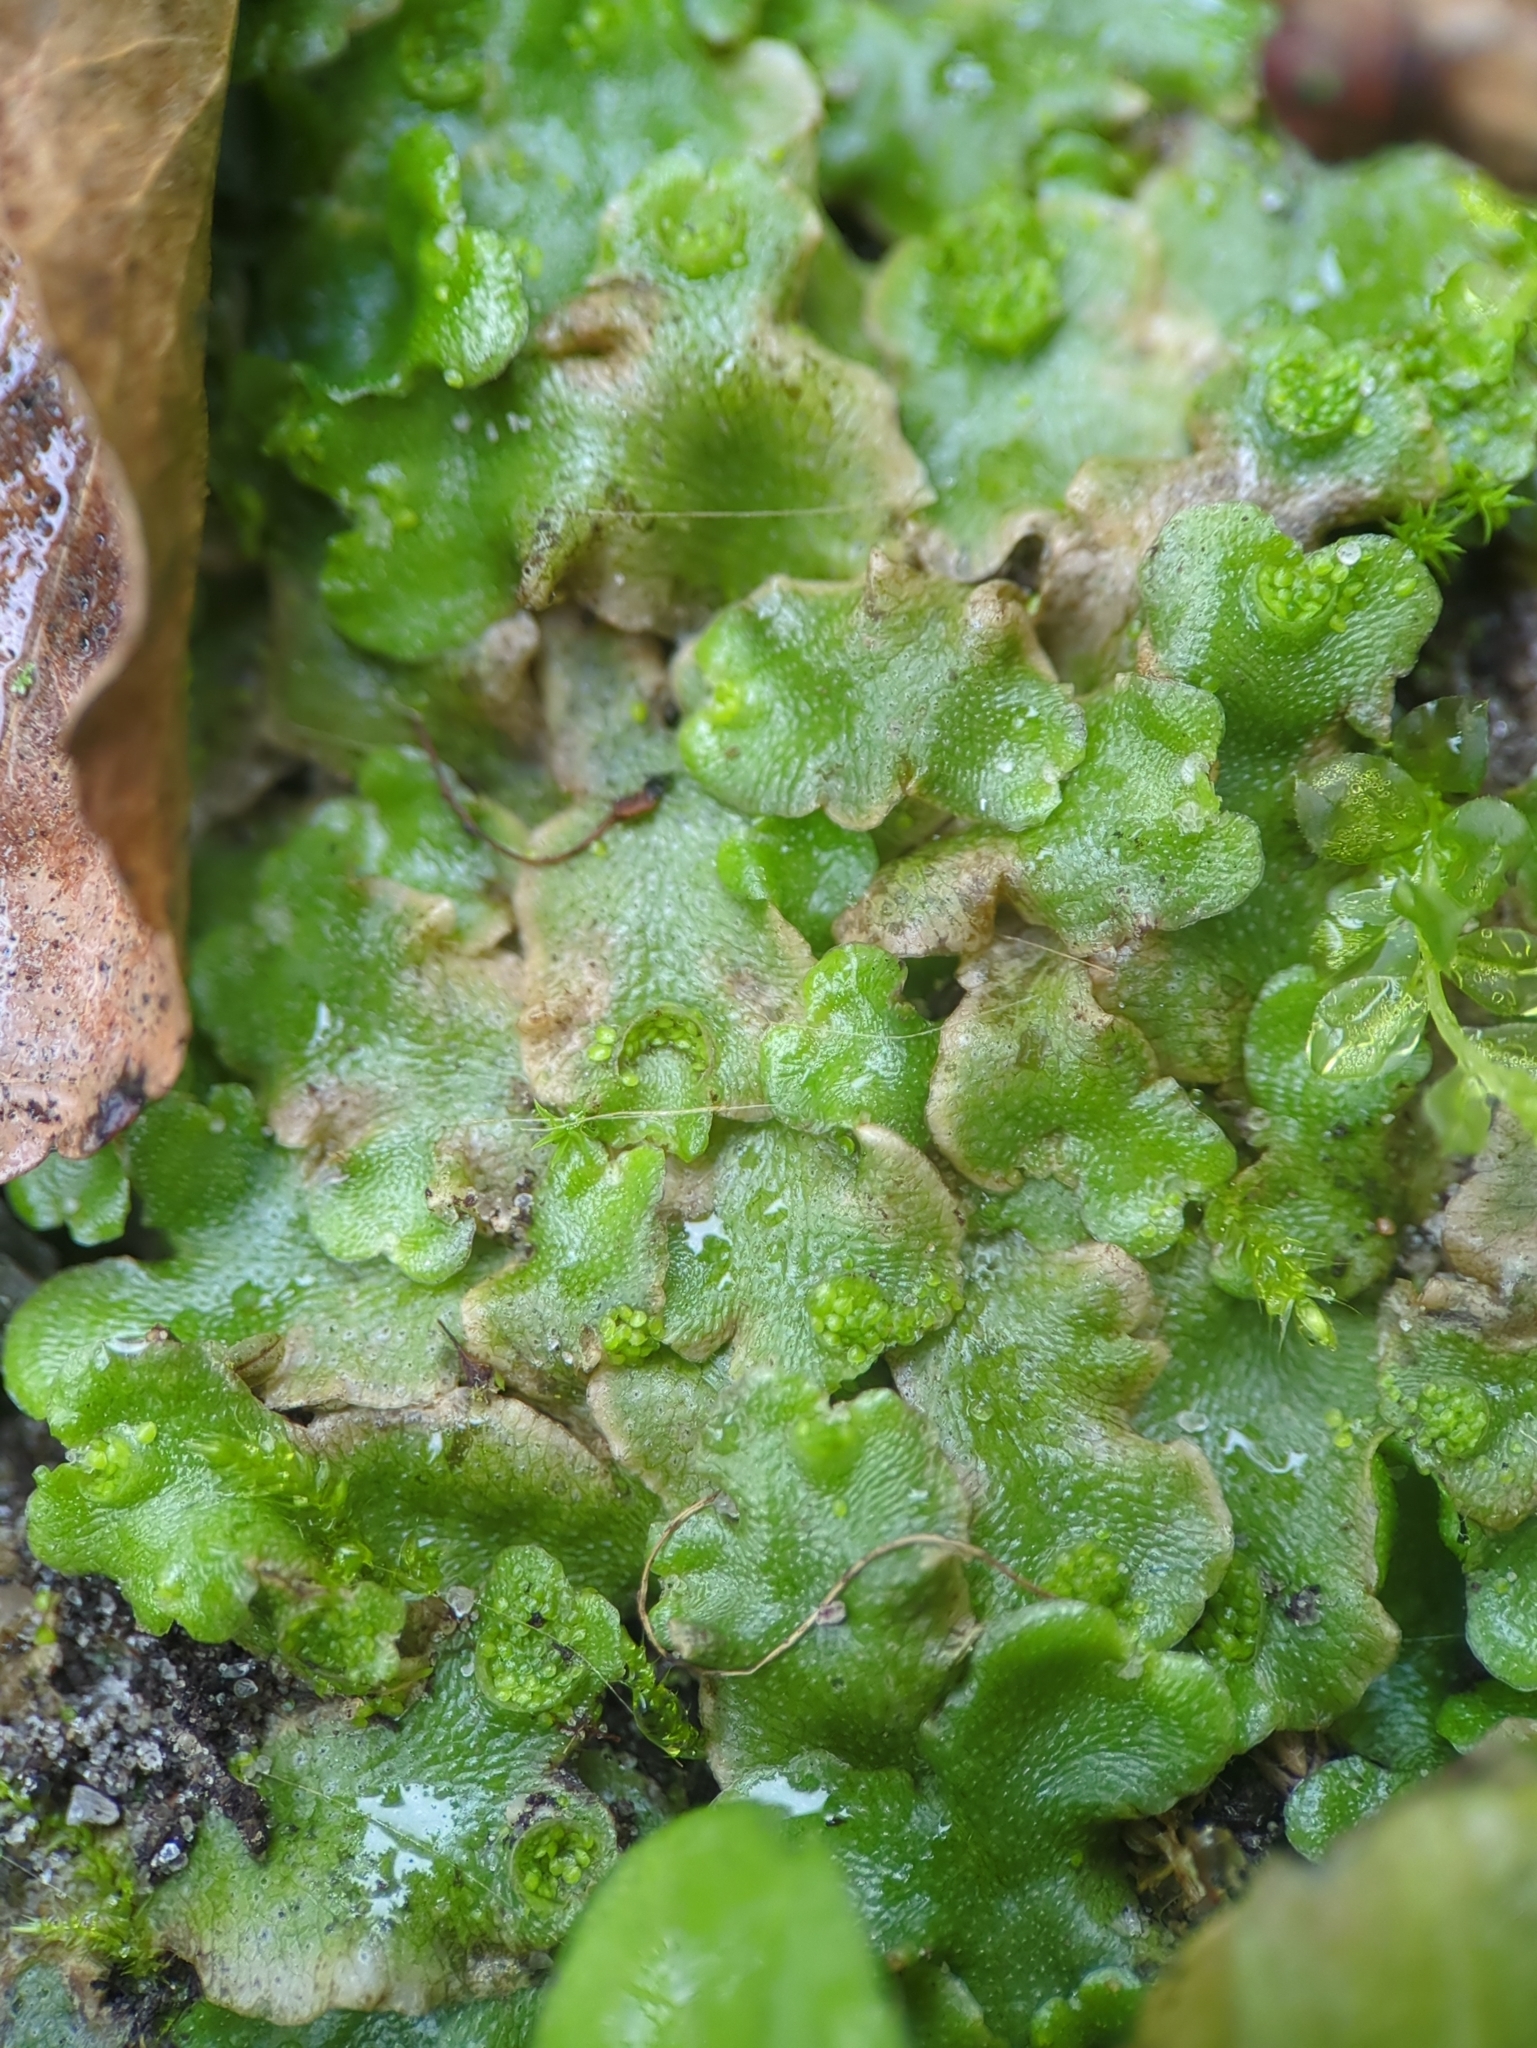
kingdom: Plantae
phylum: Marchantiophyta
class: Marchantiopsida
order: Lunulariales
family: Lunulariaceae
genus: Lunularia
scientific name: Lunularia cruciata
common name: Crescent-cup liverwort
